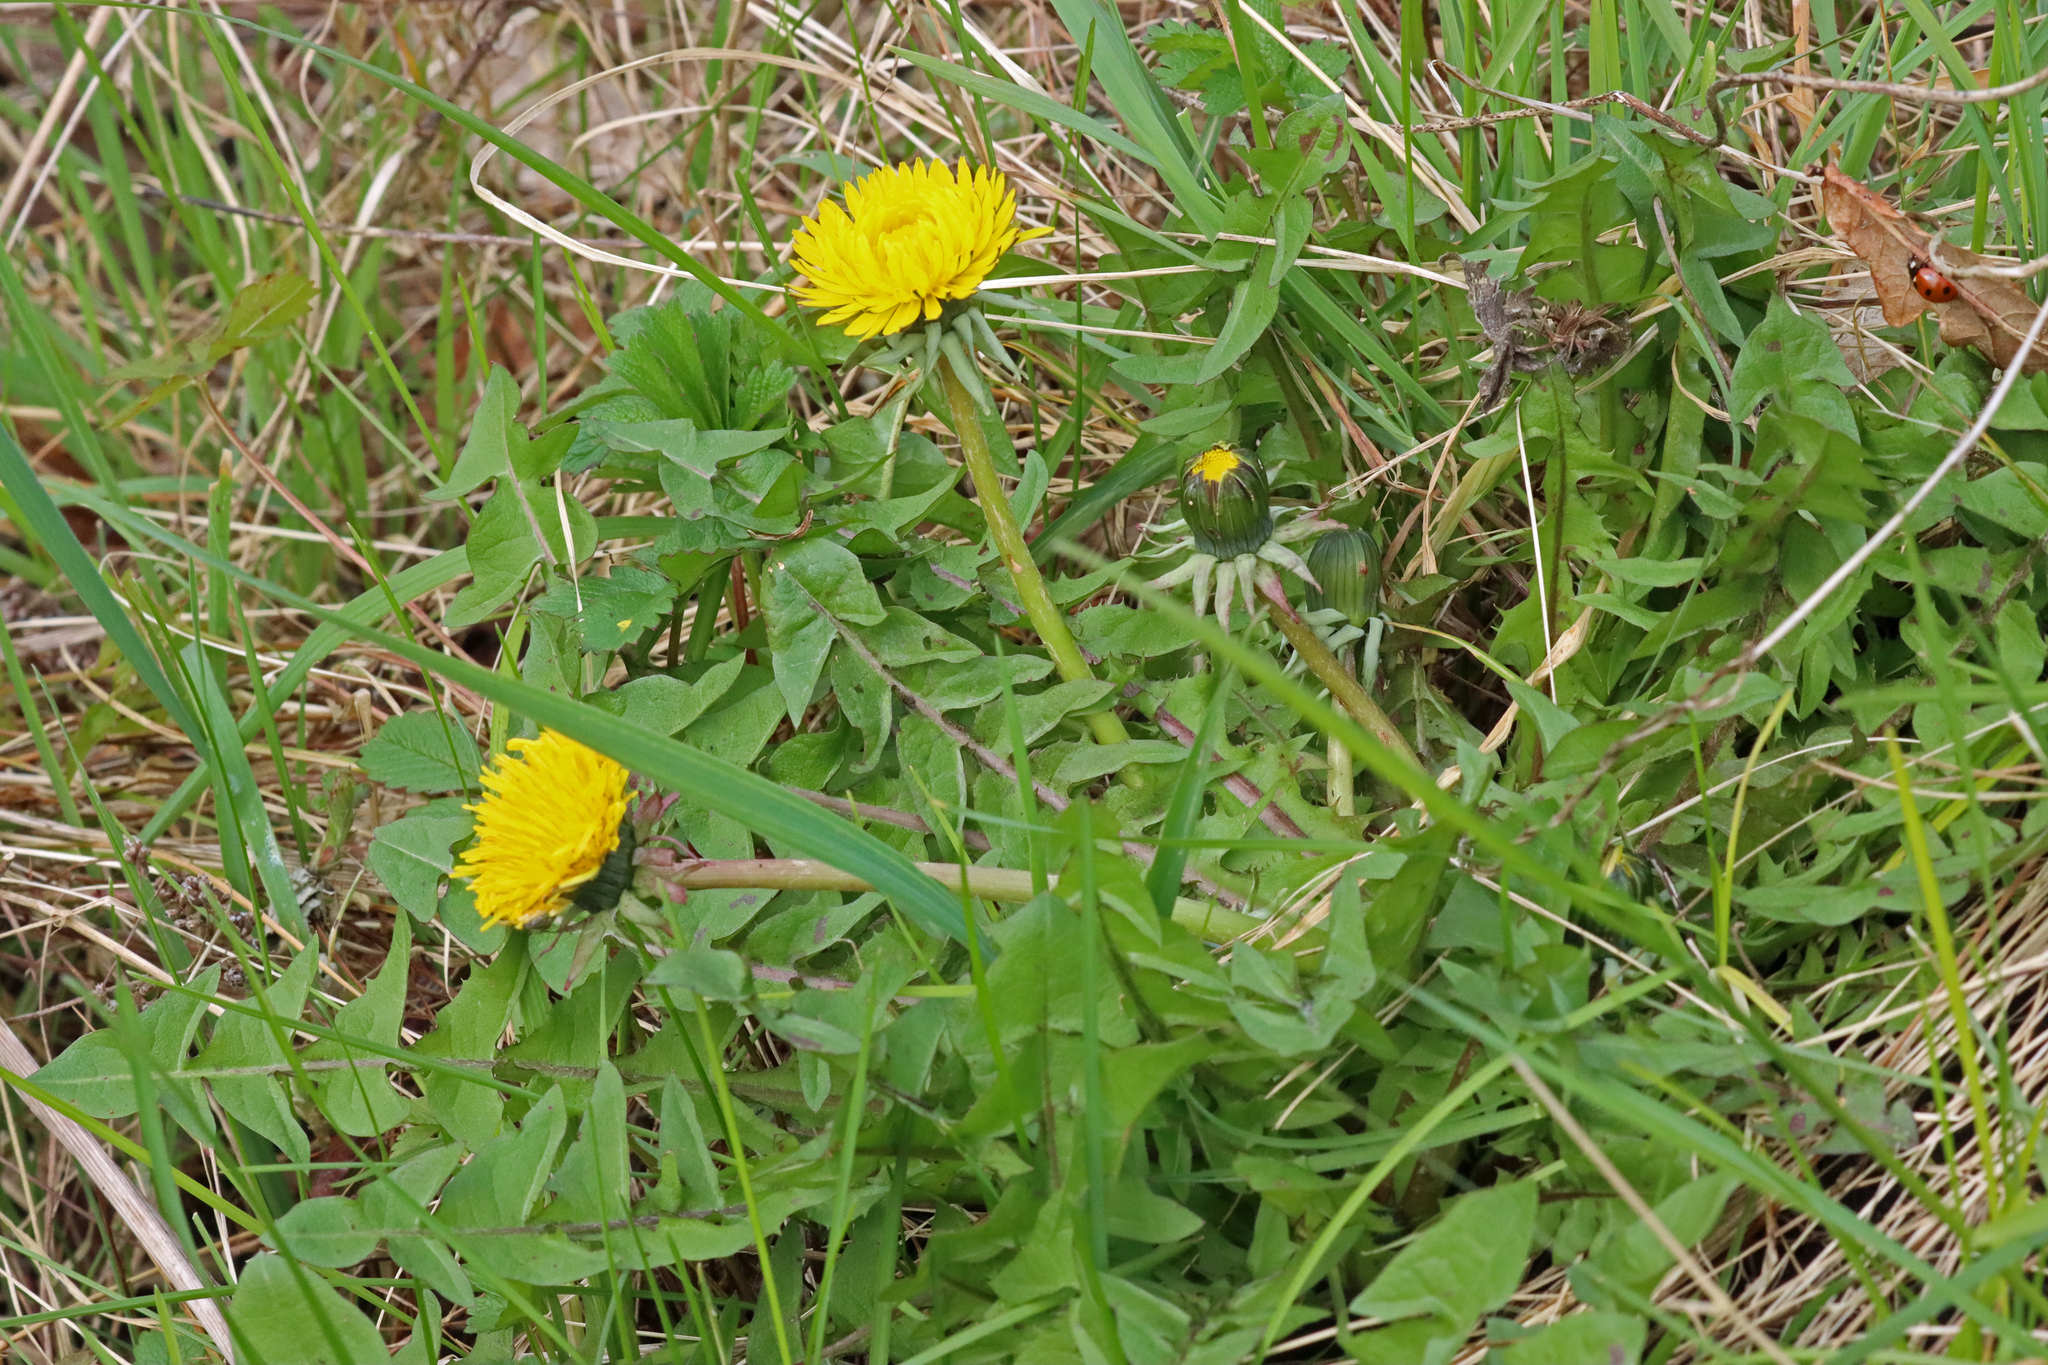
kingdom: Plantae
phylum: Tracheophyta
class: Magnoliopsida
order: Asterales
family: Asteraceae
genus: Taraxacum
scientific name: Taraxacum officinale
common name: Common dandelion
